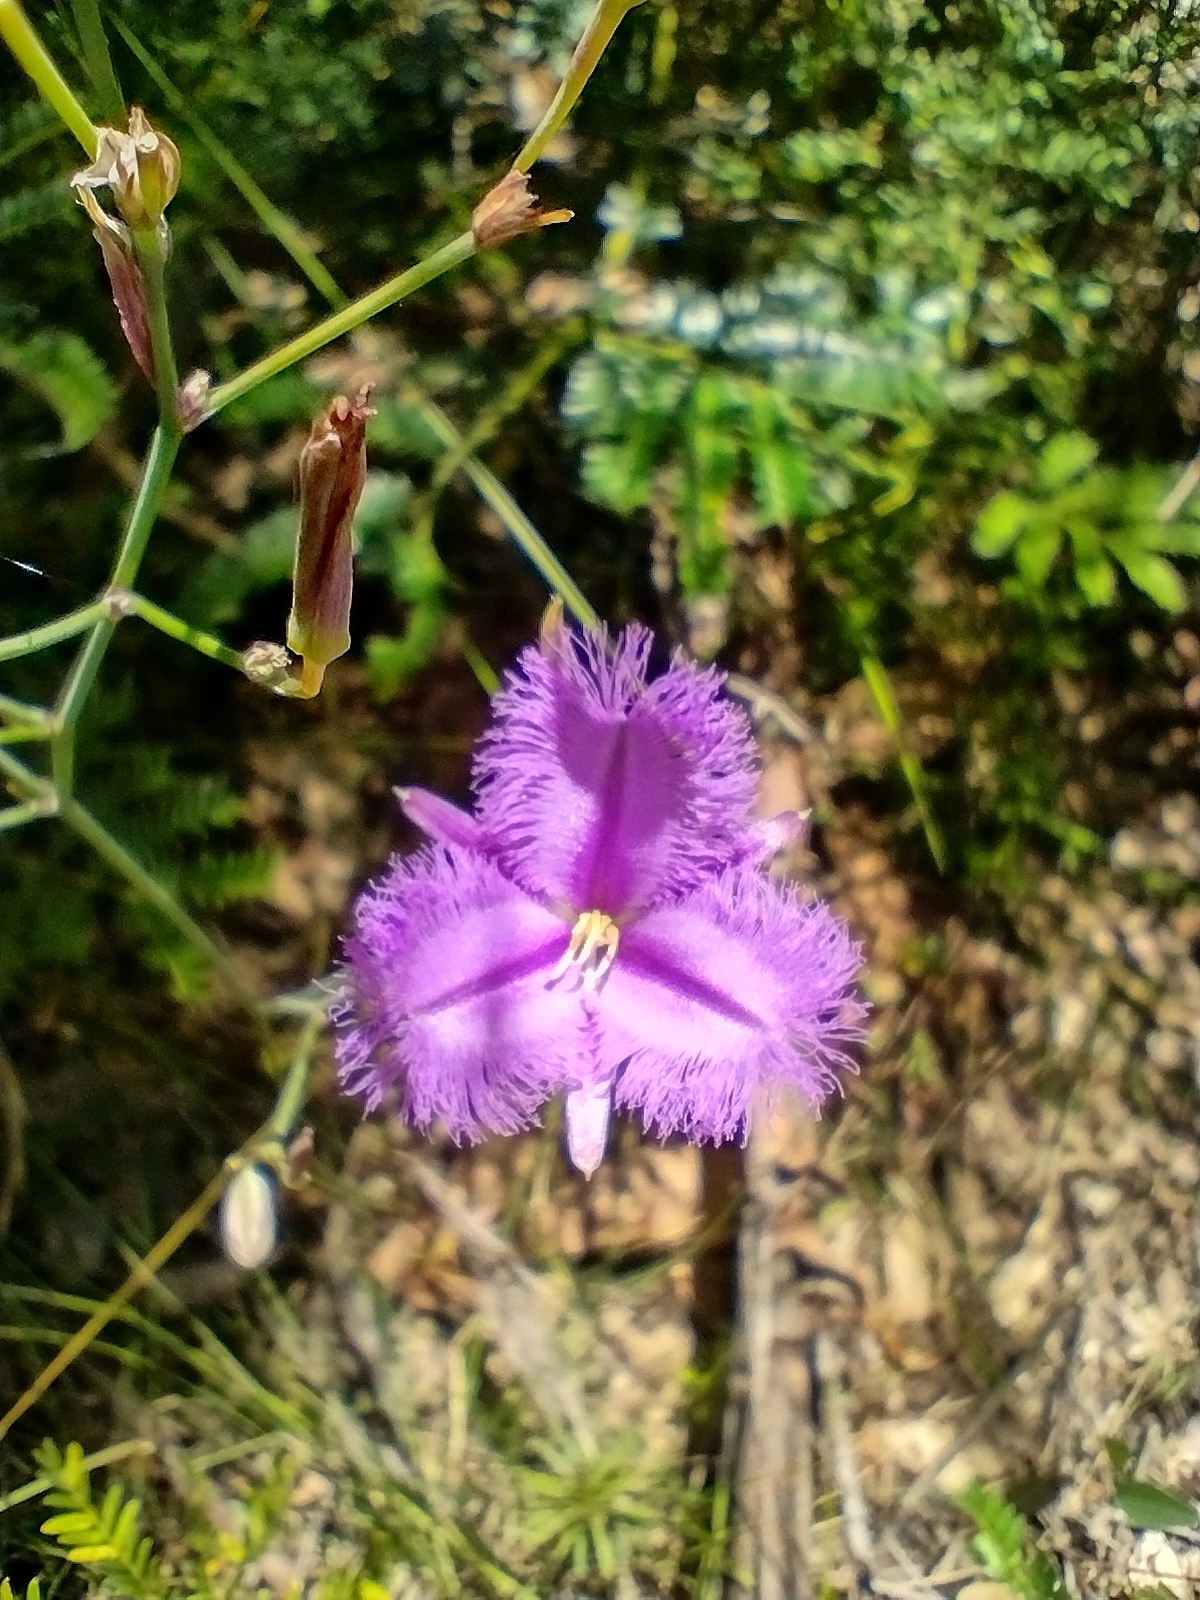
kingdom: Plantae
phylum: Tracheophyta
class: Liliopsida
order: Asparagales
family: Asparagaceae
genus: Thysanotus
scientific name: Thysanotus tuberosus
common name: Common fringed-lily
